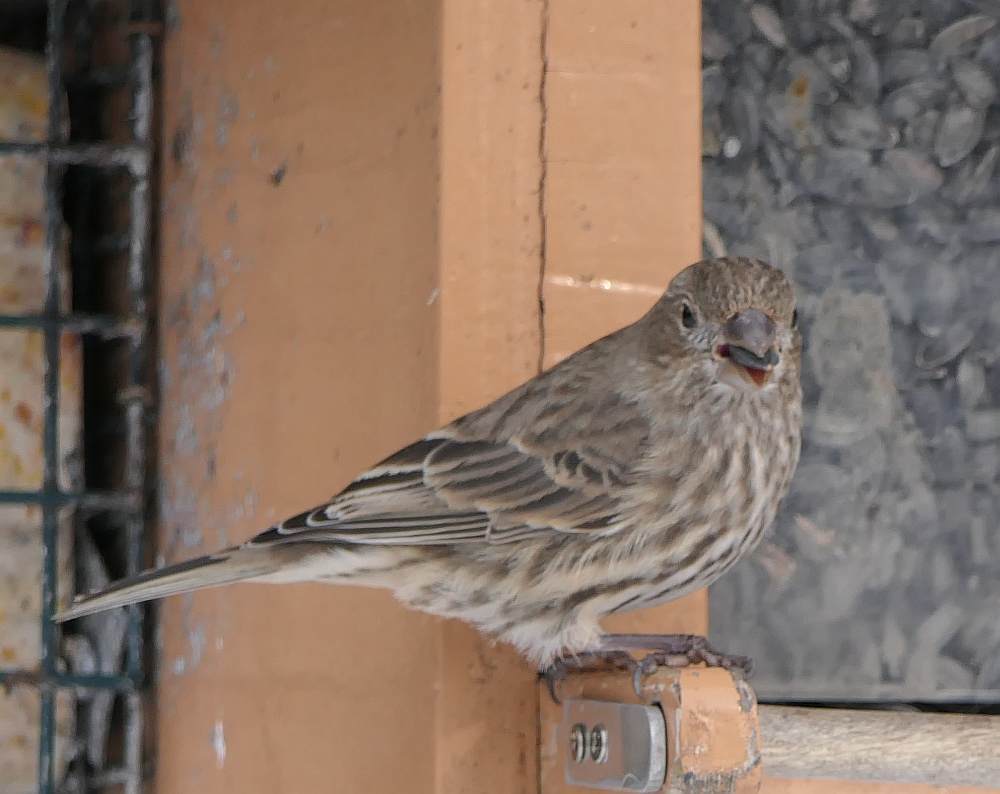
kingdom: Animalia
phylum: Chordata
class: Aves
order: Passeriformes
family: Fringillidae
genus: Haemorhous
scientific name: Haemorhous mexicanus
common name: House finch
